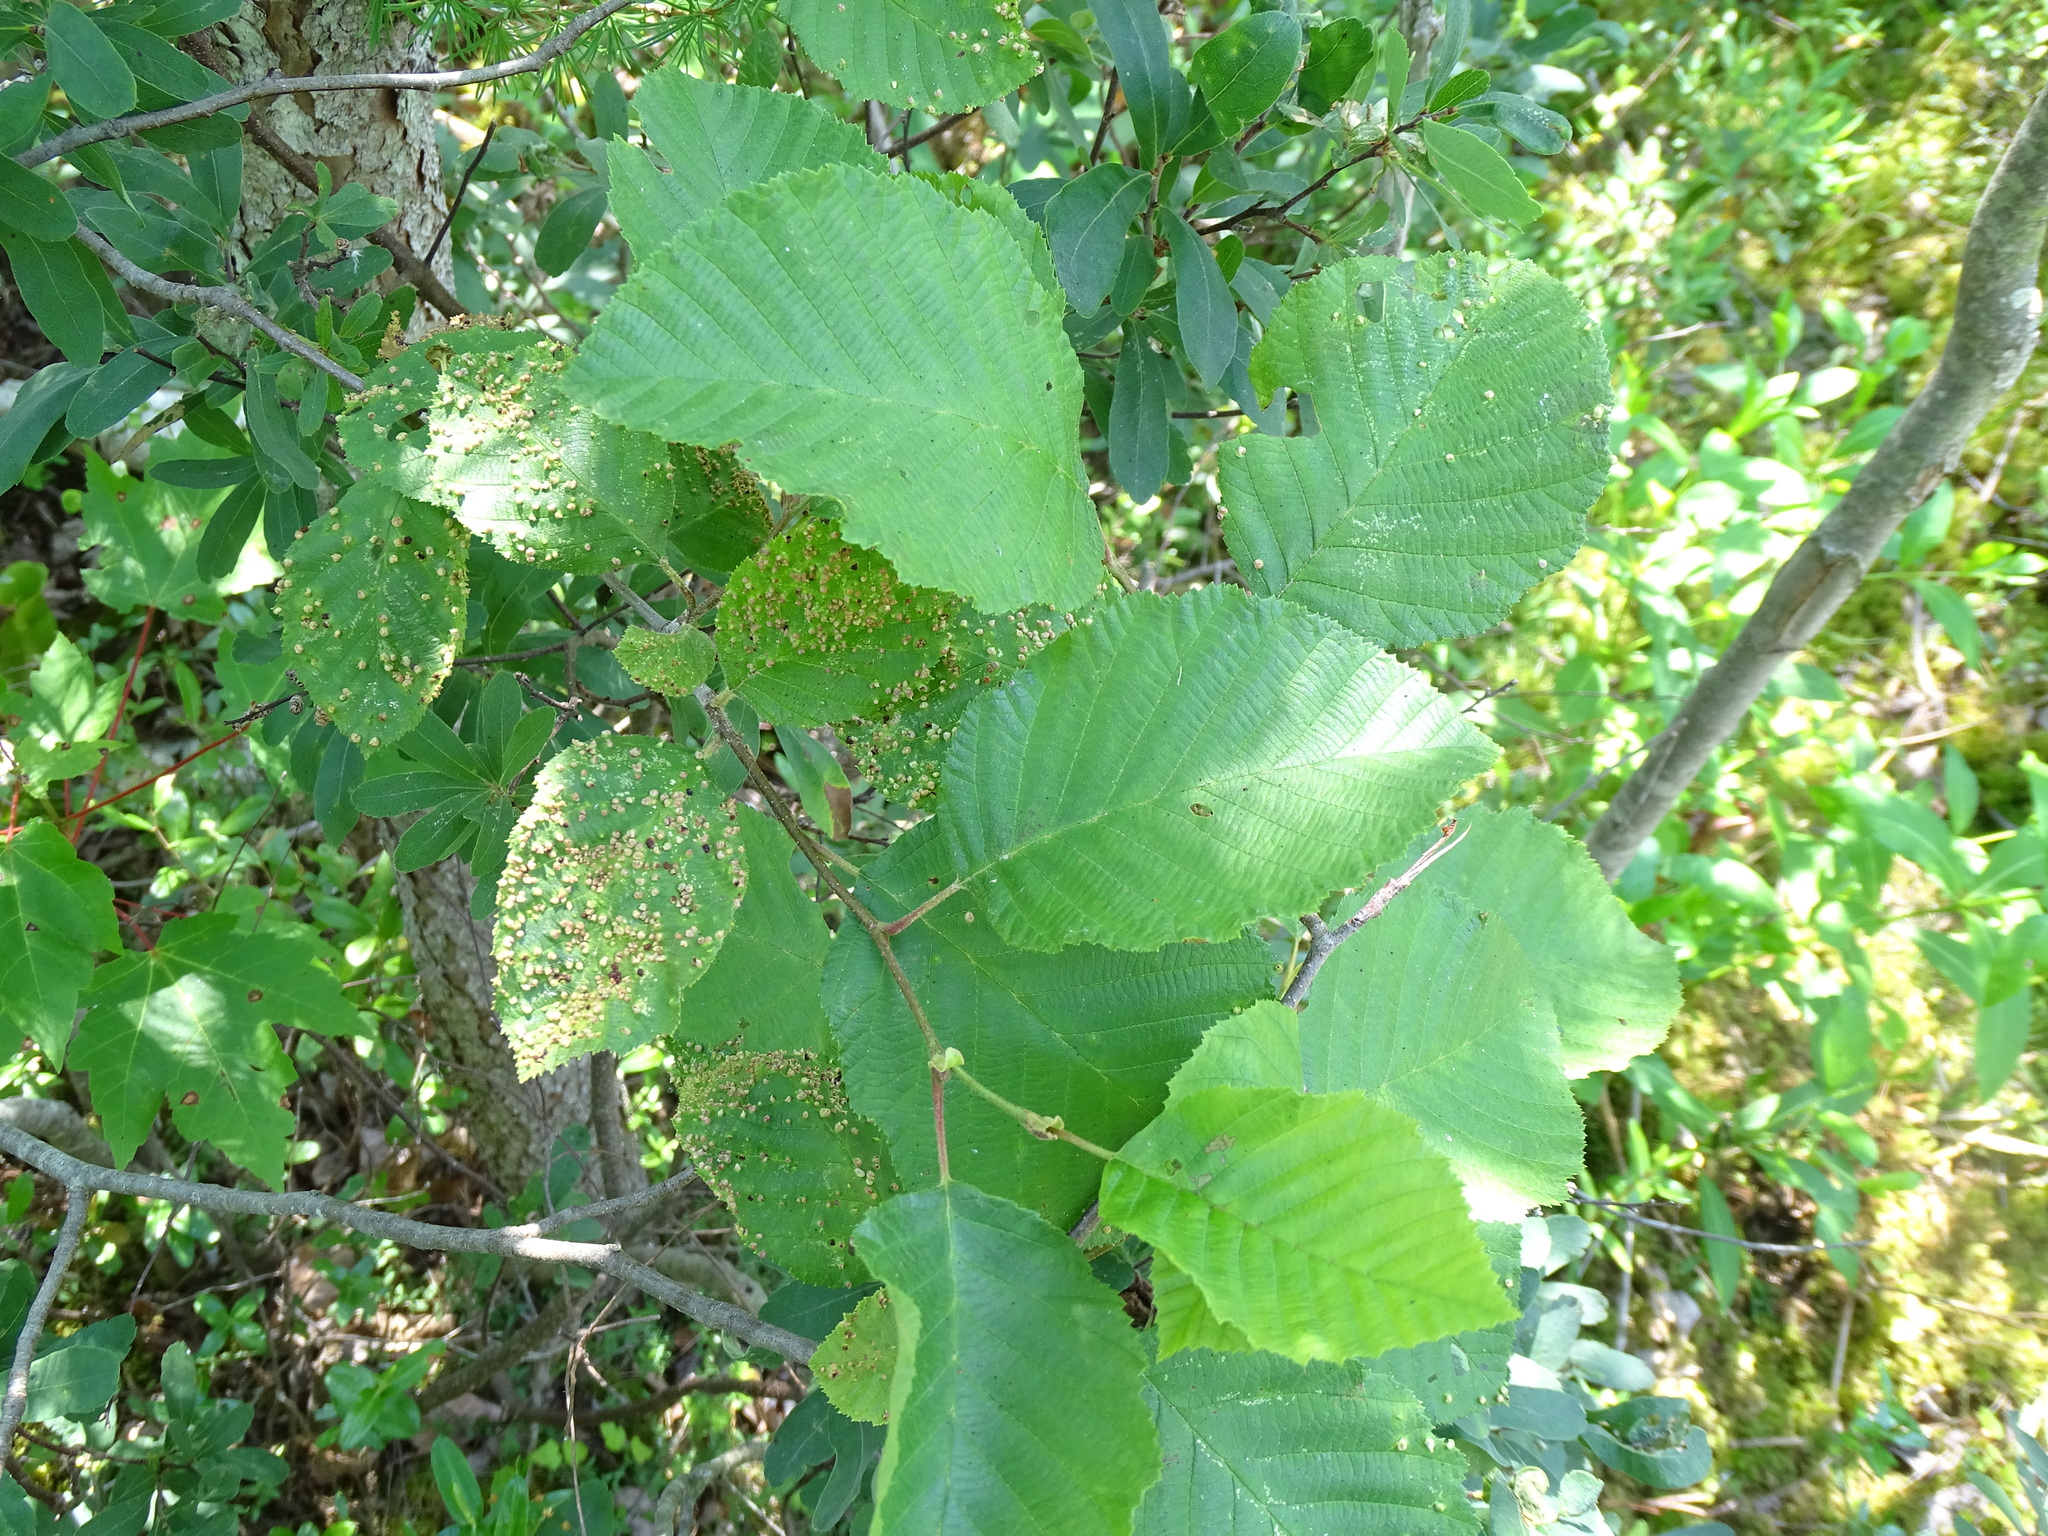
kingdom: Animalia
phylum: Arthropoda
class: Arachnida
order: Trombidiformes
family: Eriophyidae
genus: Eriophyes
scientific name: Eriophyes laevis
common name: Alder leaf gall mite
